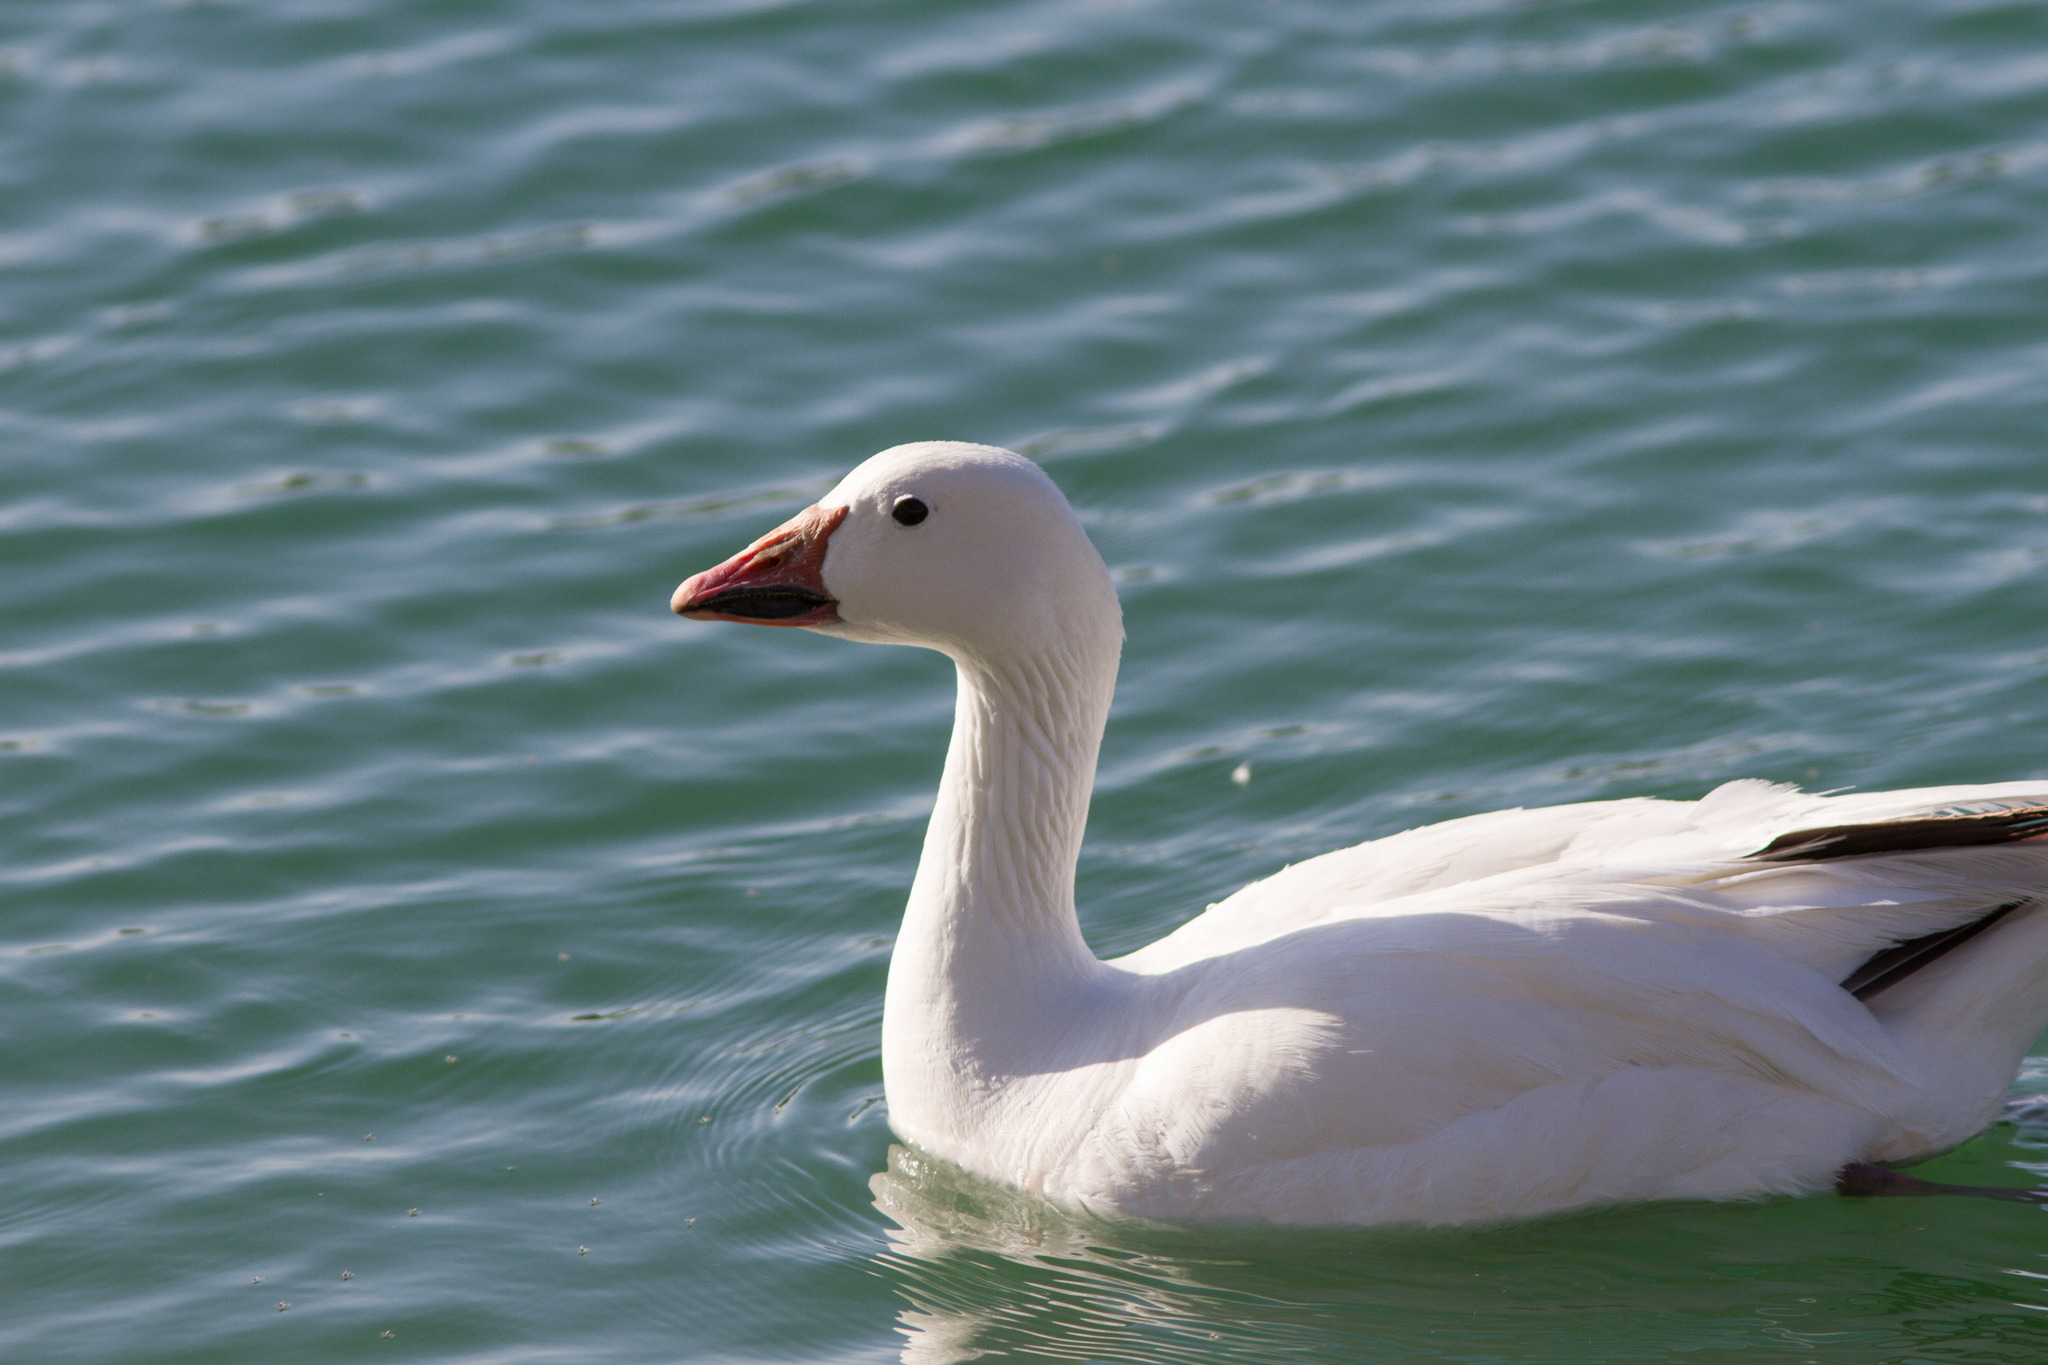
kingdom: Animalia
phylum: Chordata
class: Aves
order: Anseriformes
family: Anatidae
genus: Anser
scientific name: Anser caerulescens
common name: Snow goose
